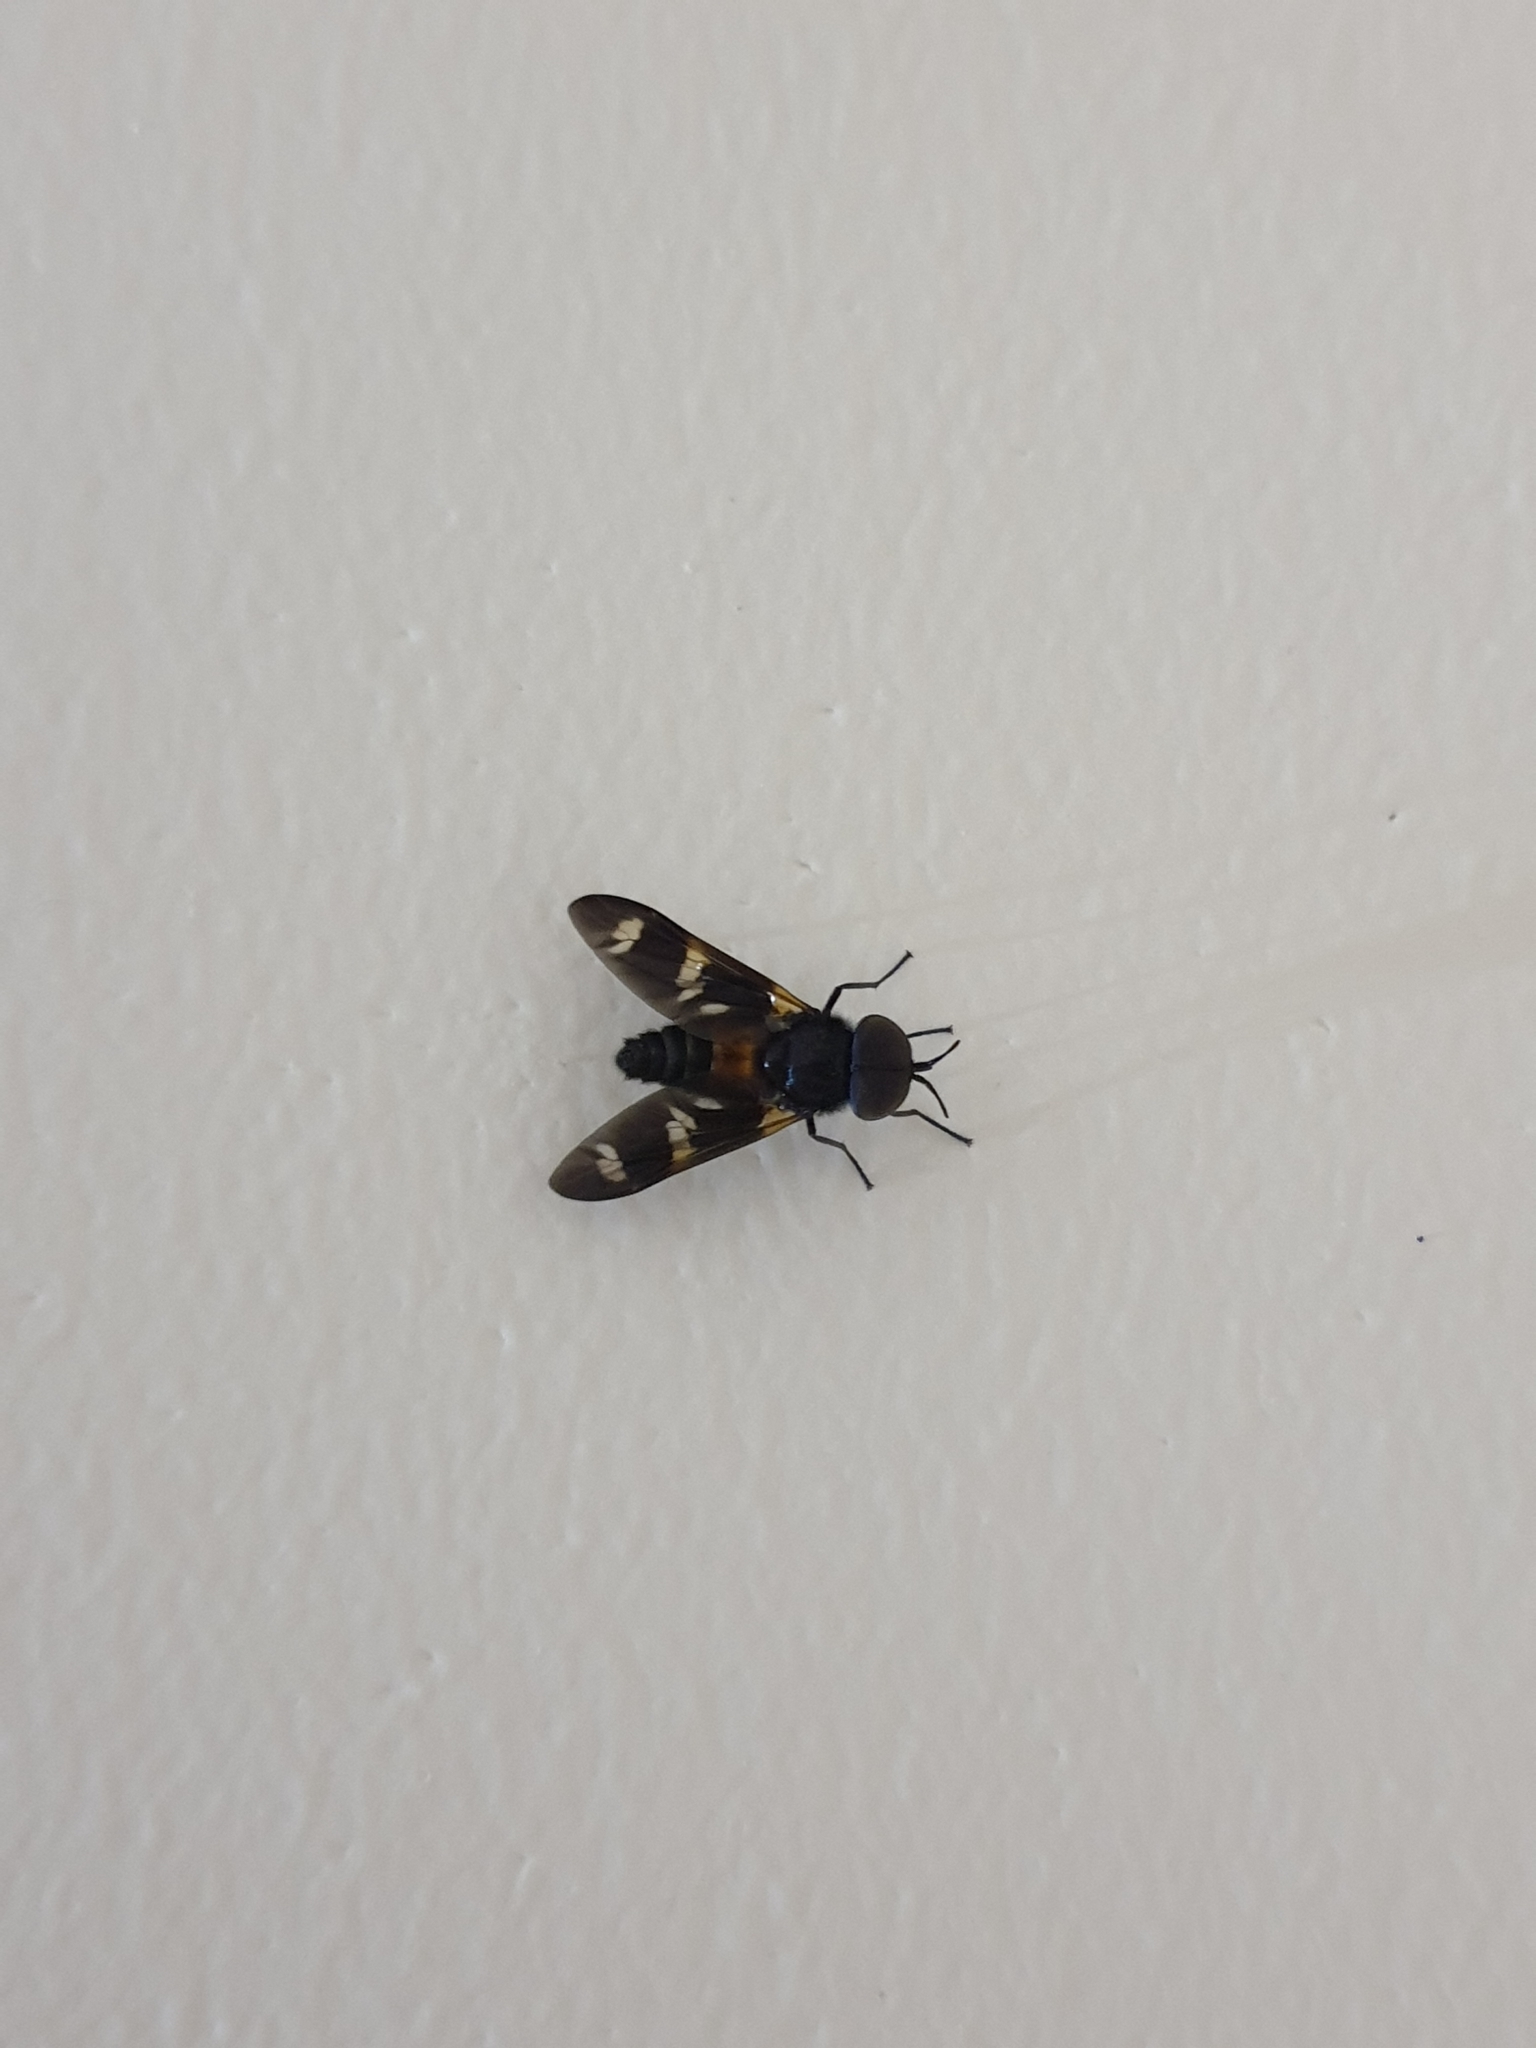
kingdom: Animalia
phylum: Arthropoda
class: Insecta
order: Diptera
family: Tabanidae
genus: Gastroxides
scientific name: Gastroxides ornatus
